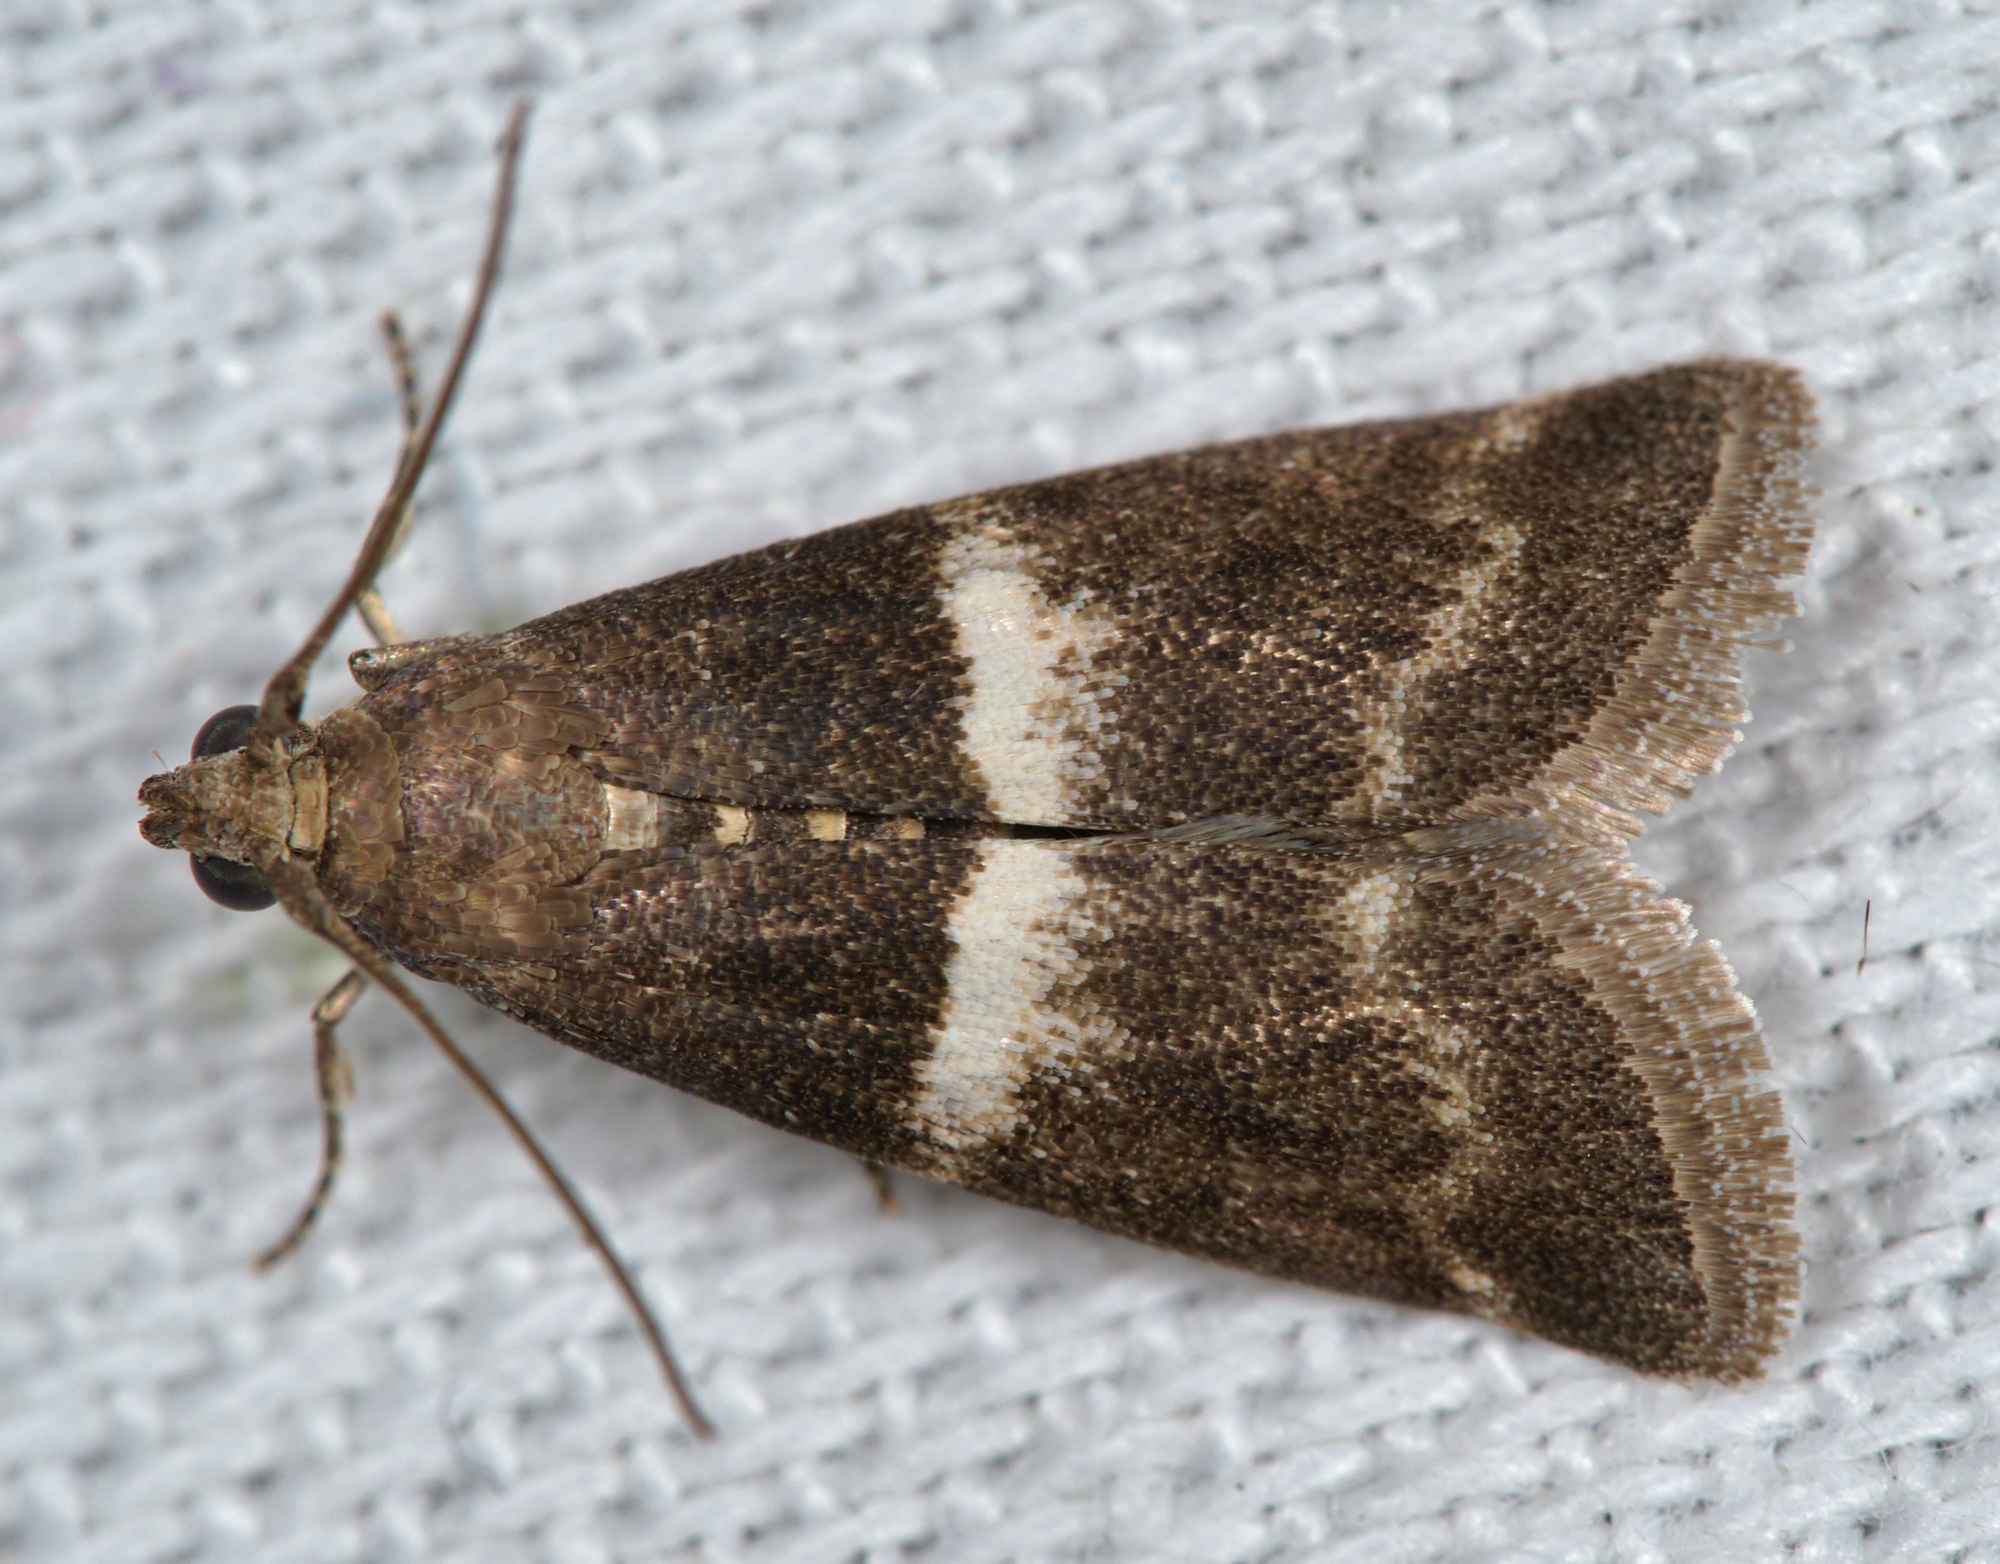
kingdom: Animalia
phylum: Arthropoda
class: Insecta
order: Lepidoptera
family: Pyralidae
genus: Elegia
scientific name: Elegia similella
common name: White-barred knot-horn
